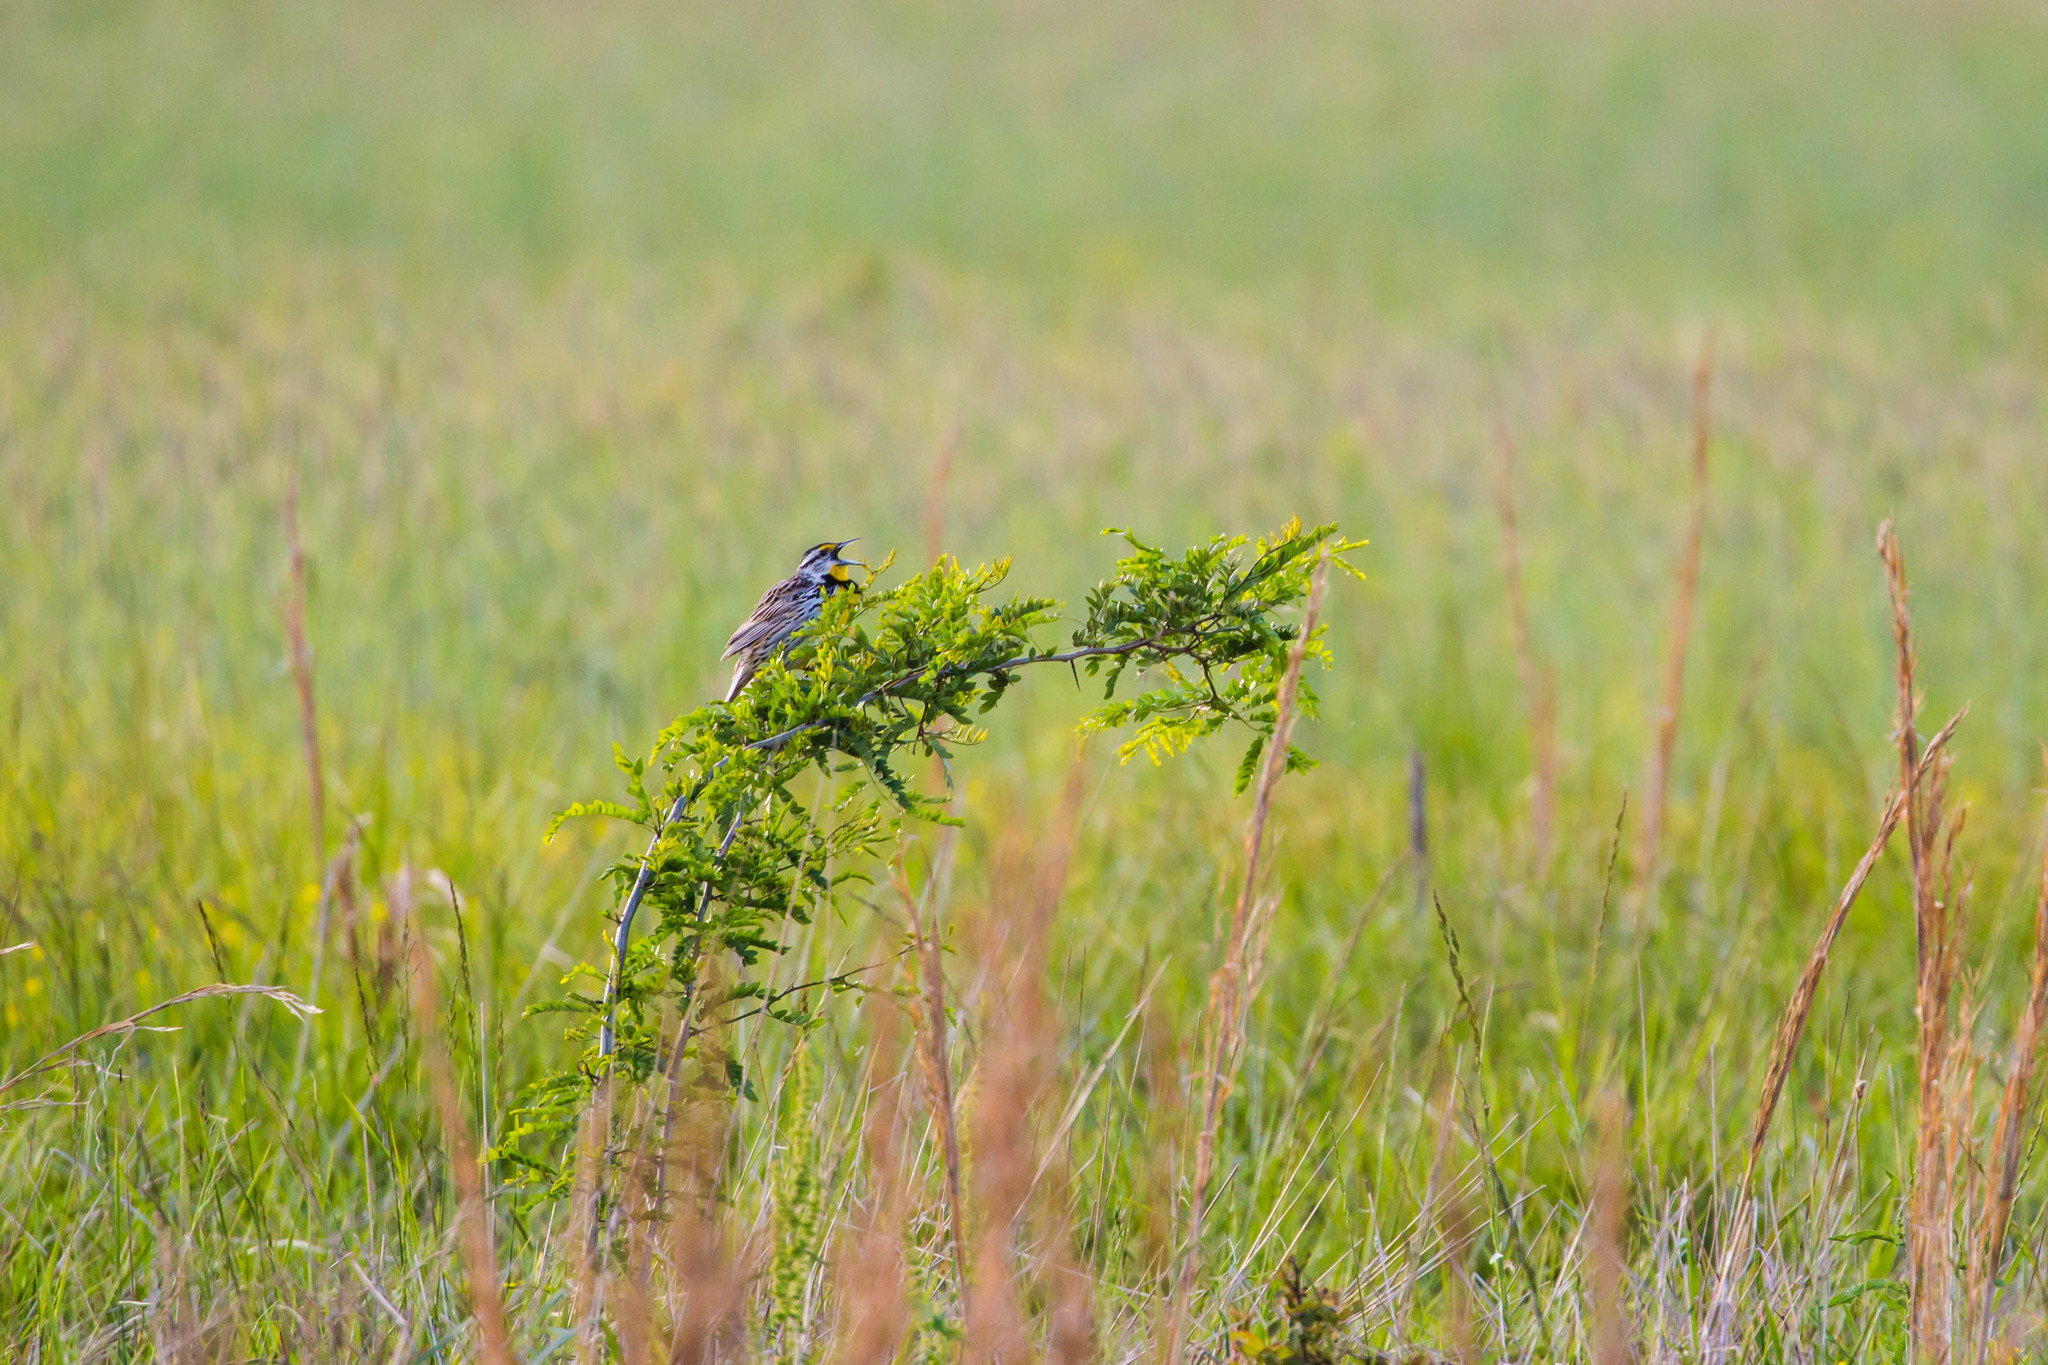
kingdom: Animalia
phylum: Chordata
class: Aves
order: Passeriformes
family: Icteridae
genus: Sturnella
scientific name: Sturnella magna
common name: Eastern meadowlark
